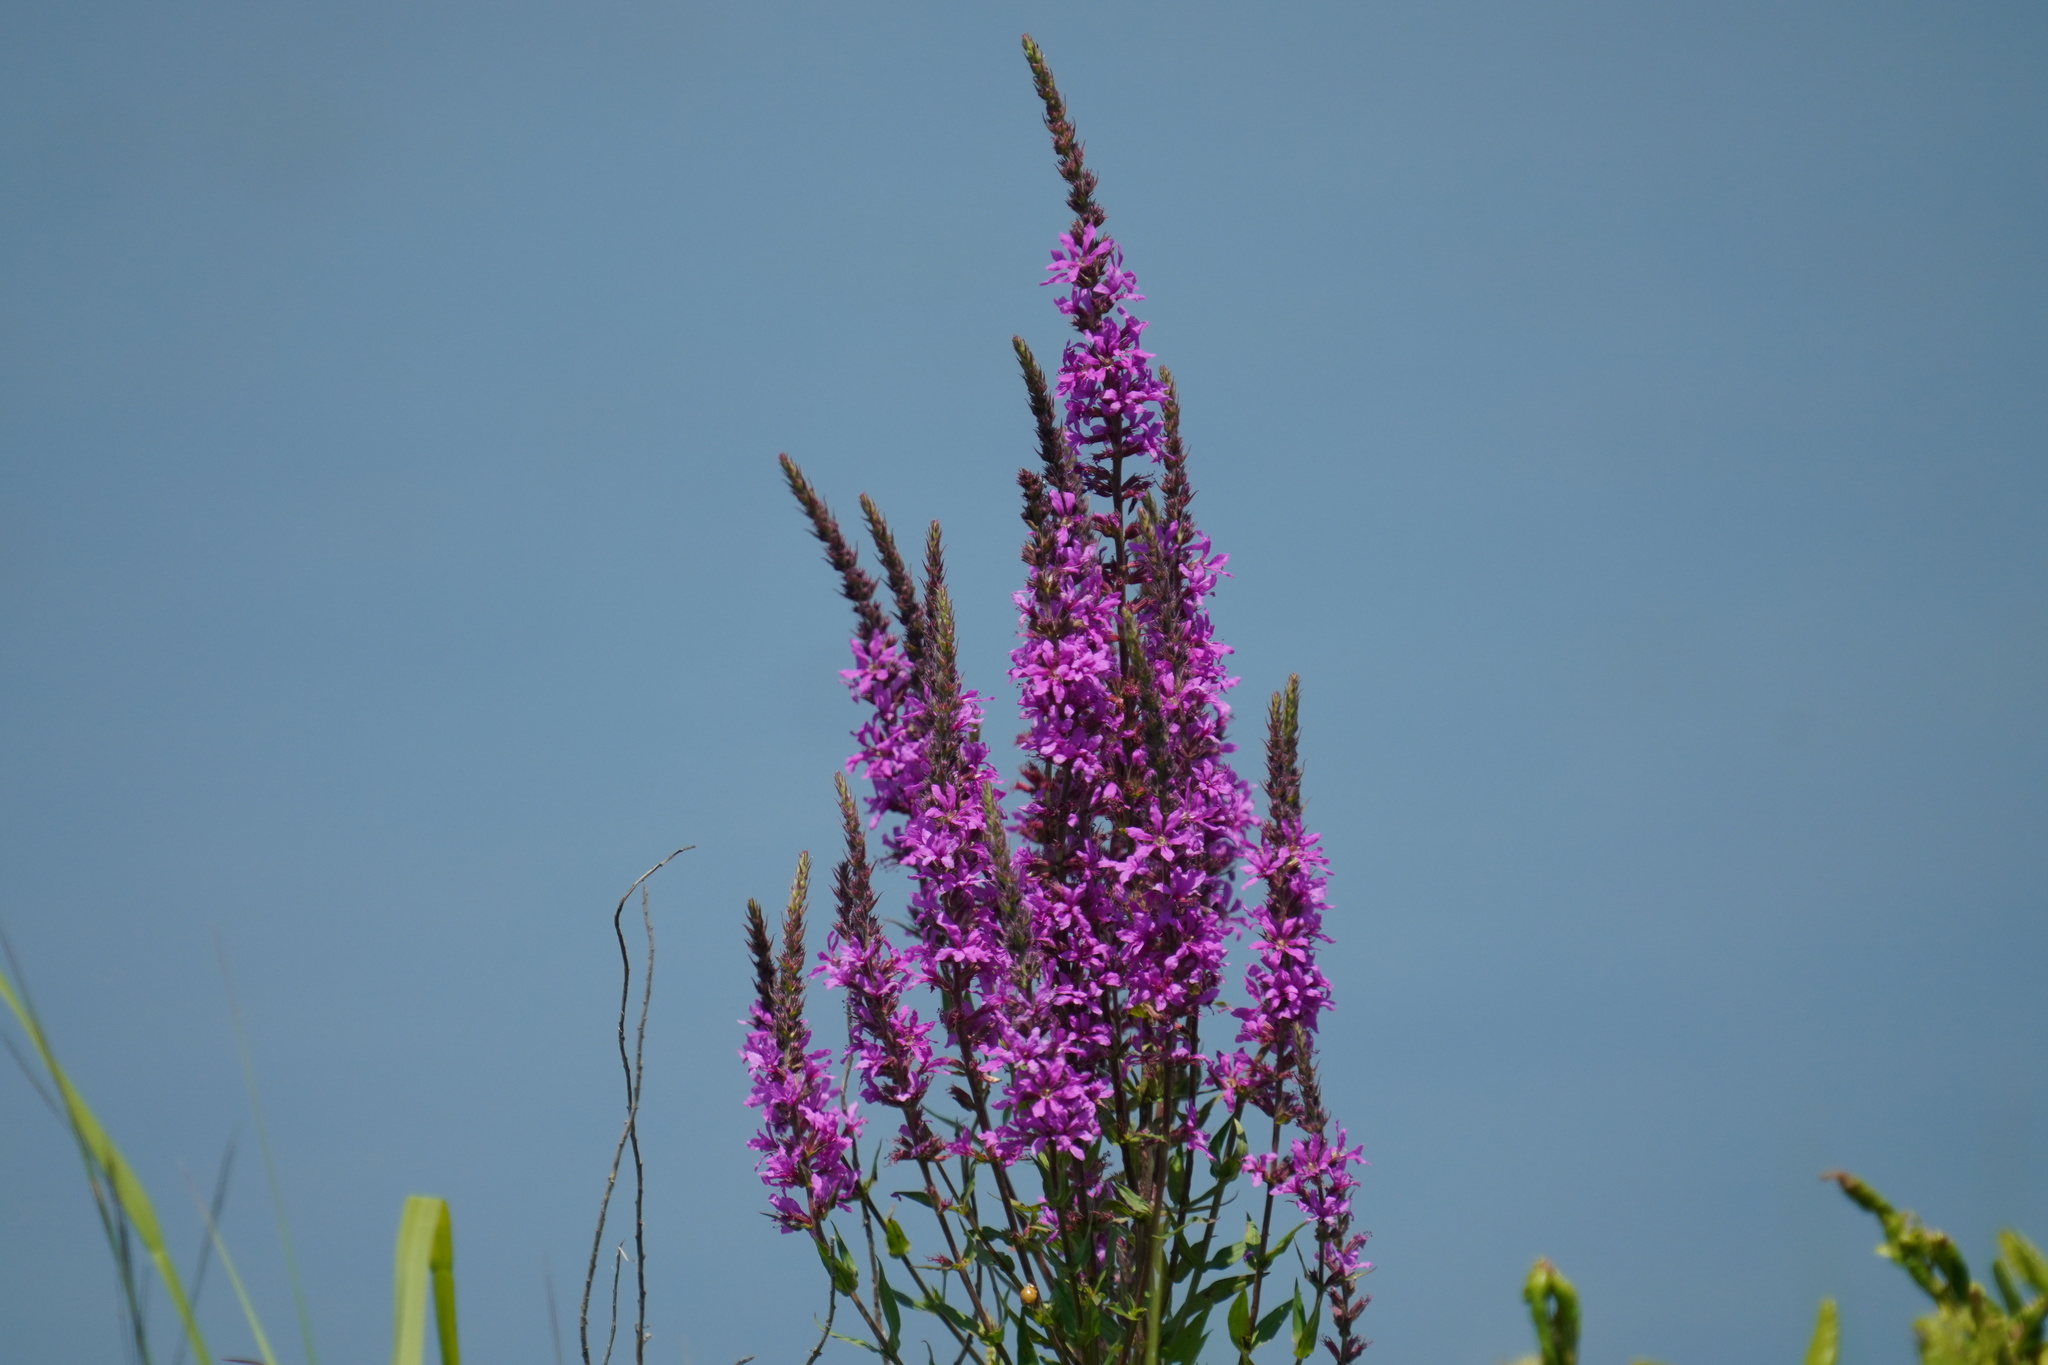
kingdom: Plantae
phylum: Tracheophyta
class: Magnoliopsida
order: Myrtales
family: Lythraceae
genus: Lythrum
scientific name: Lythrum salicaria
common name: Purple loosestrife
